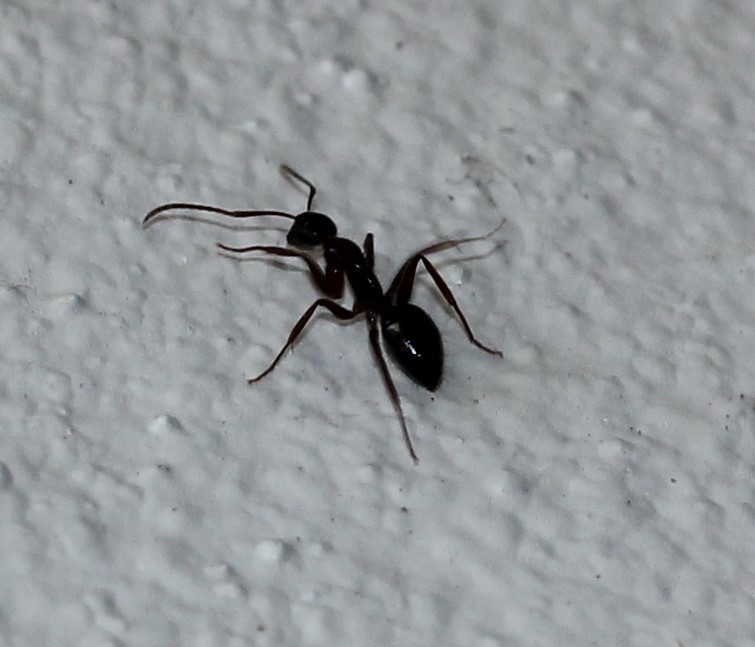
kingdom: Animalia
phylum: Arthropoda
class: Insecta
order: Hymenoptera
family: Formicidae
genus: Camponotus
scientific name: Camponotus sexguttatus
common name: Neotropical carpenter ant
